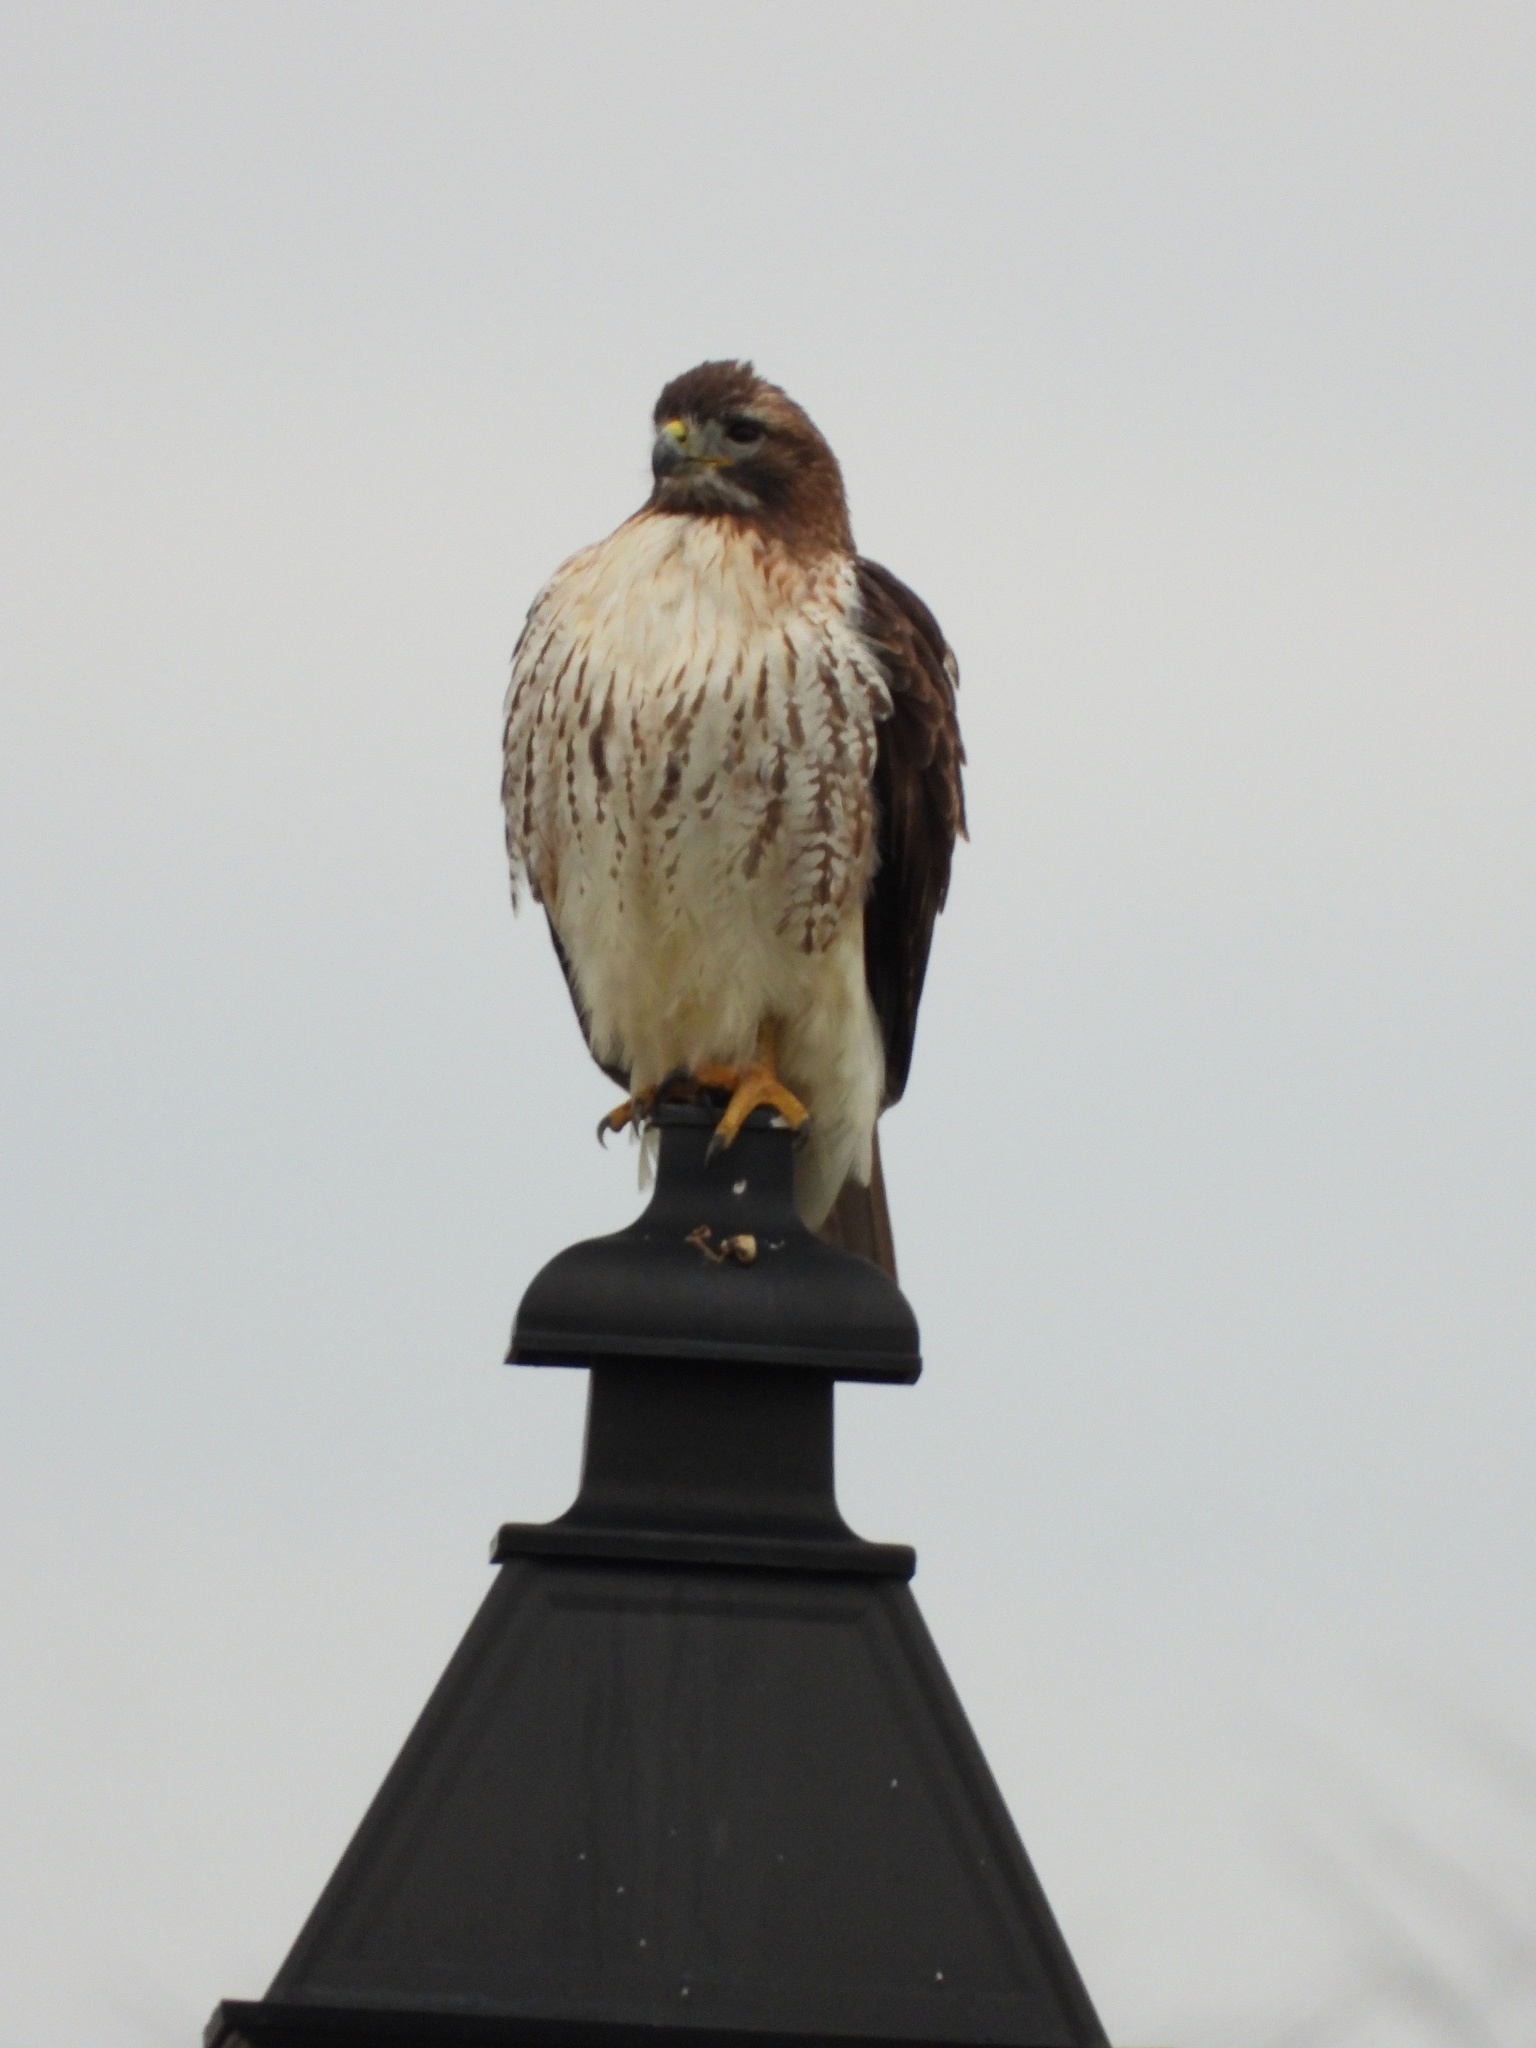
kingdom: Animalia
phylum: Chordata
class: Aves
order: Accipitriformes
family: Accipitridae
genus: Buteo
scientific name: Buteo jamaicensis
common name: Red-tailed hawk
